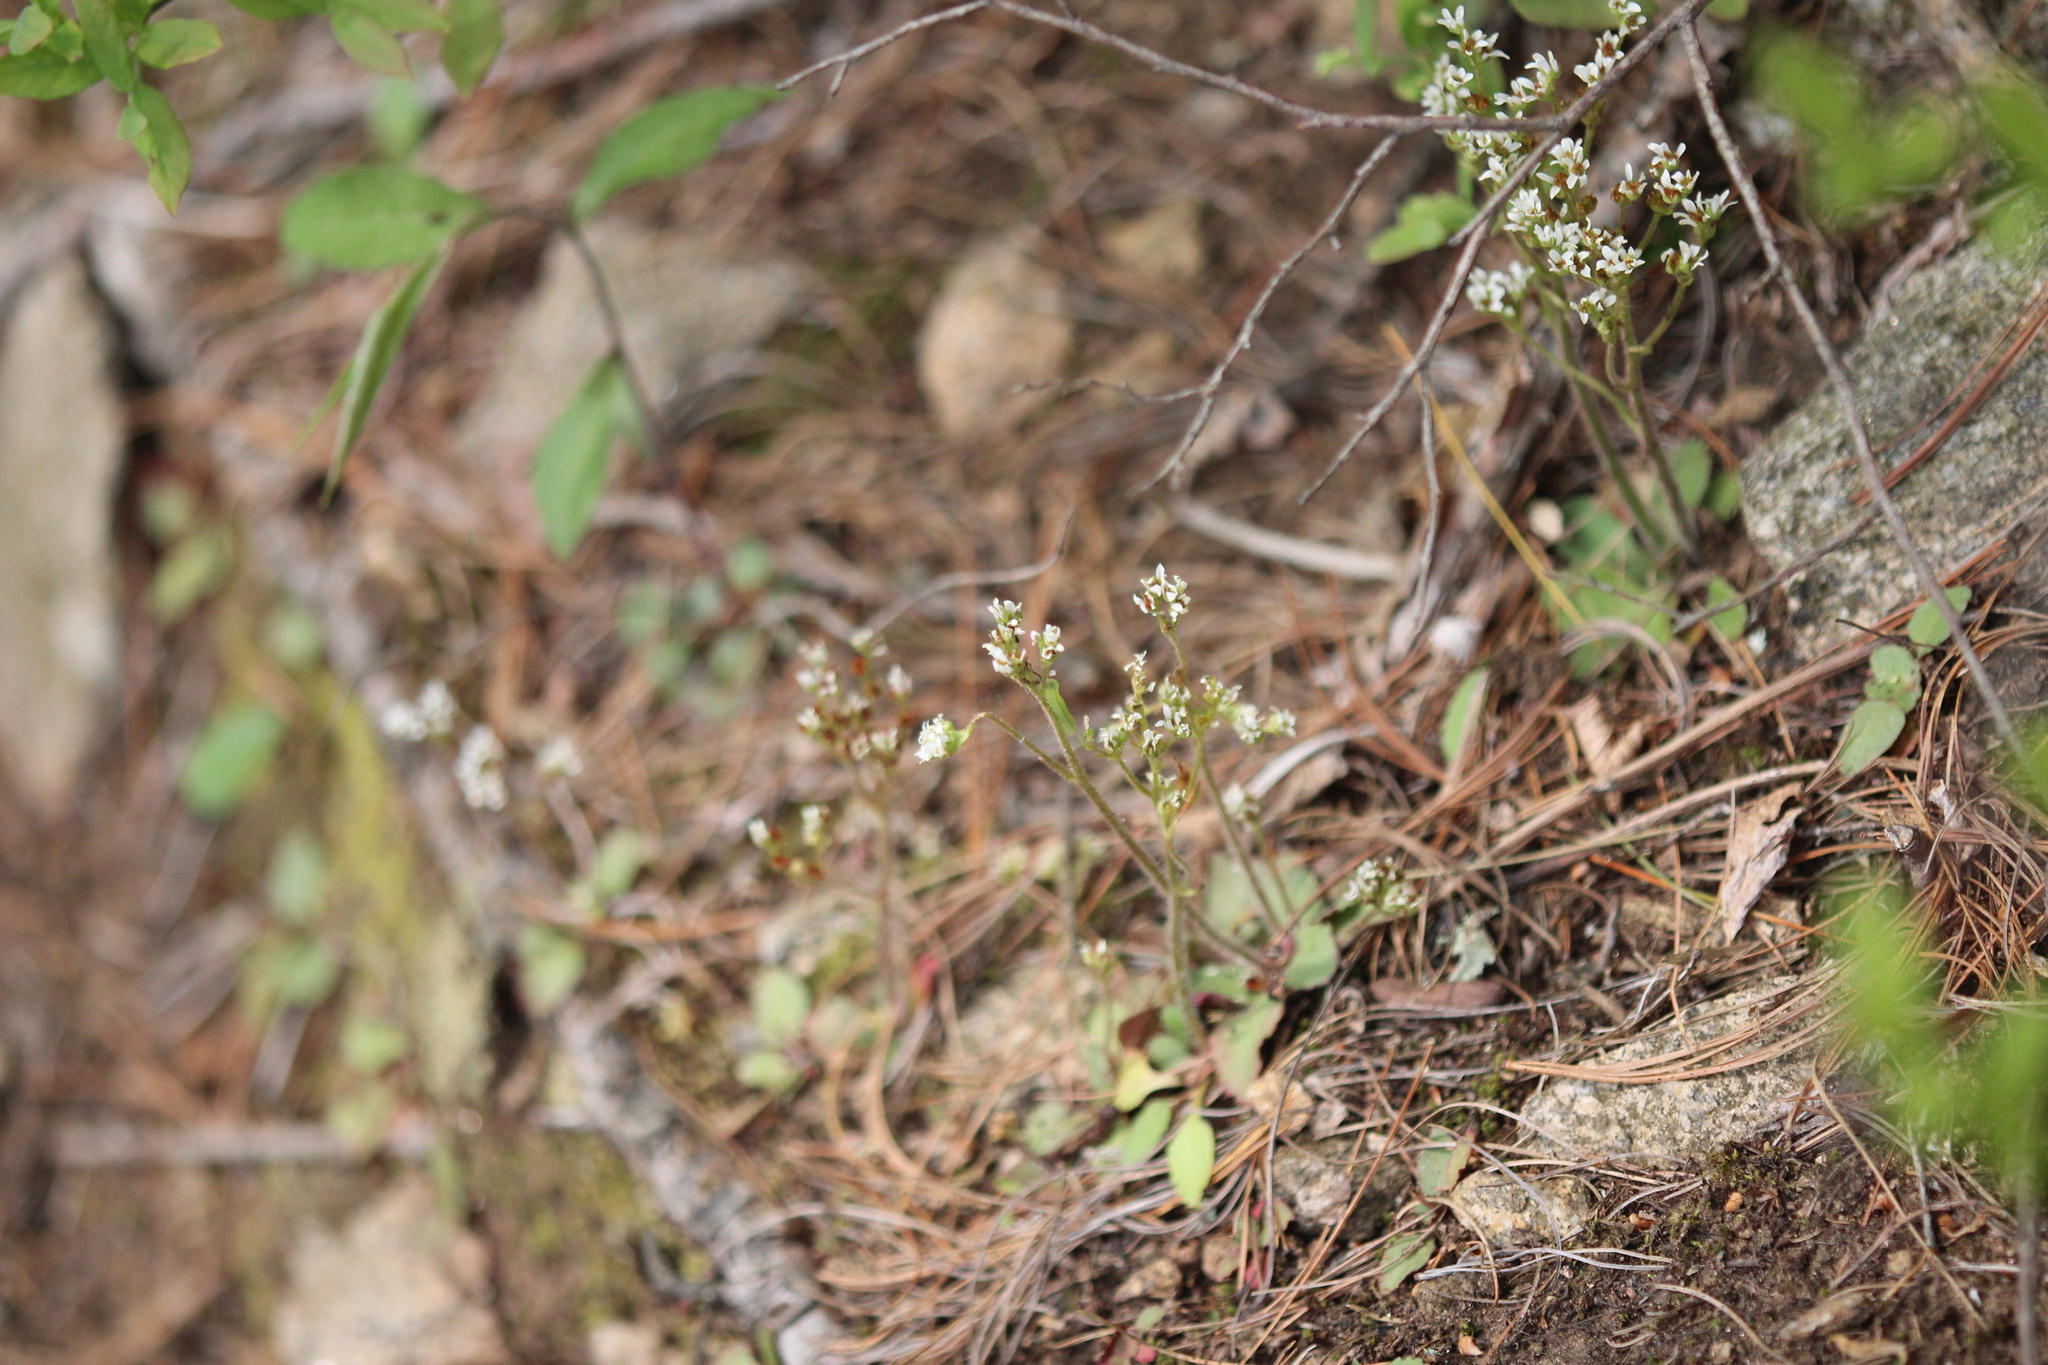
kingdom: Plantae
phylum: Tracheophyta
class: Magnoliopsida
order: Saxifragales
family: Saxifragaceae
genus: Micranthes
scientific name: Micranthes virginiensis
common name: Early saxifrage
